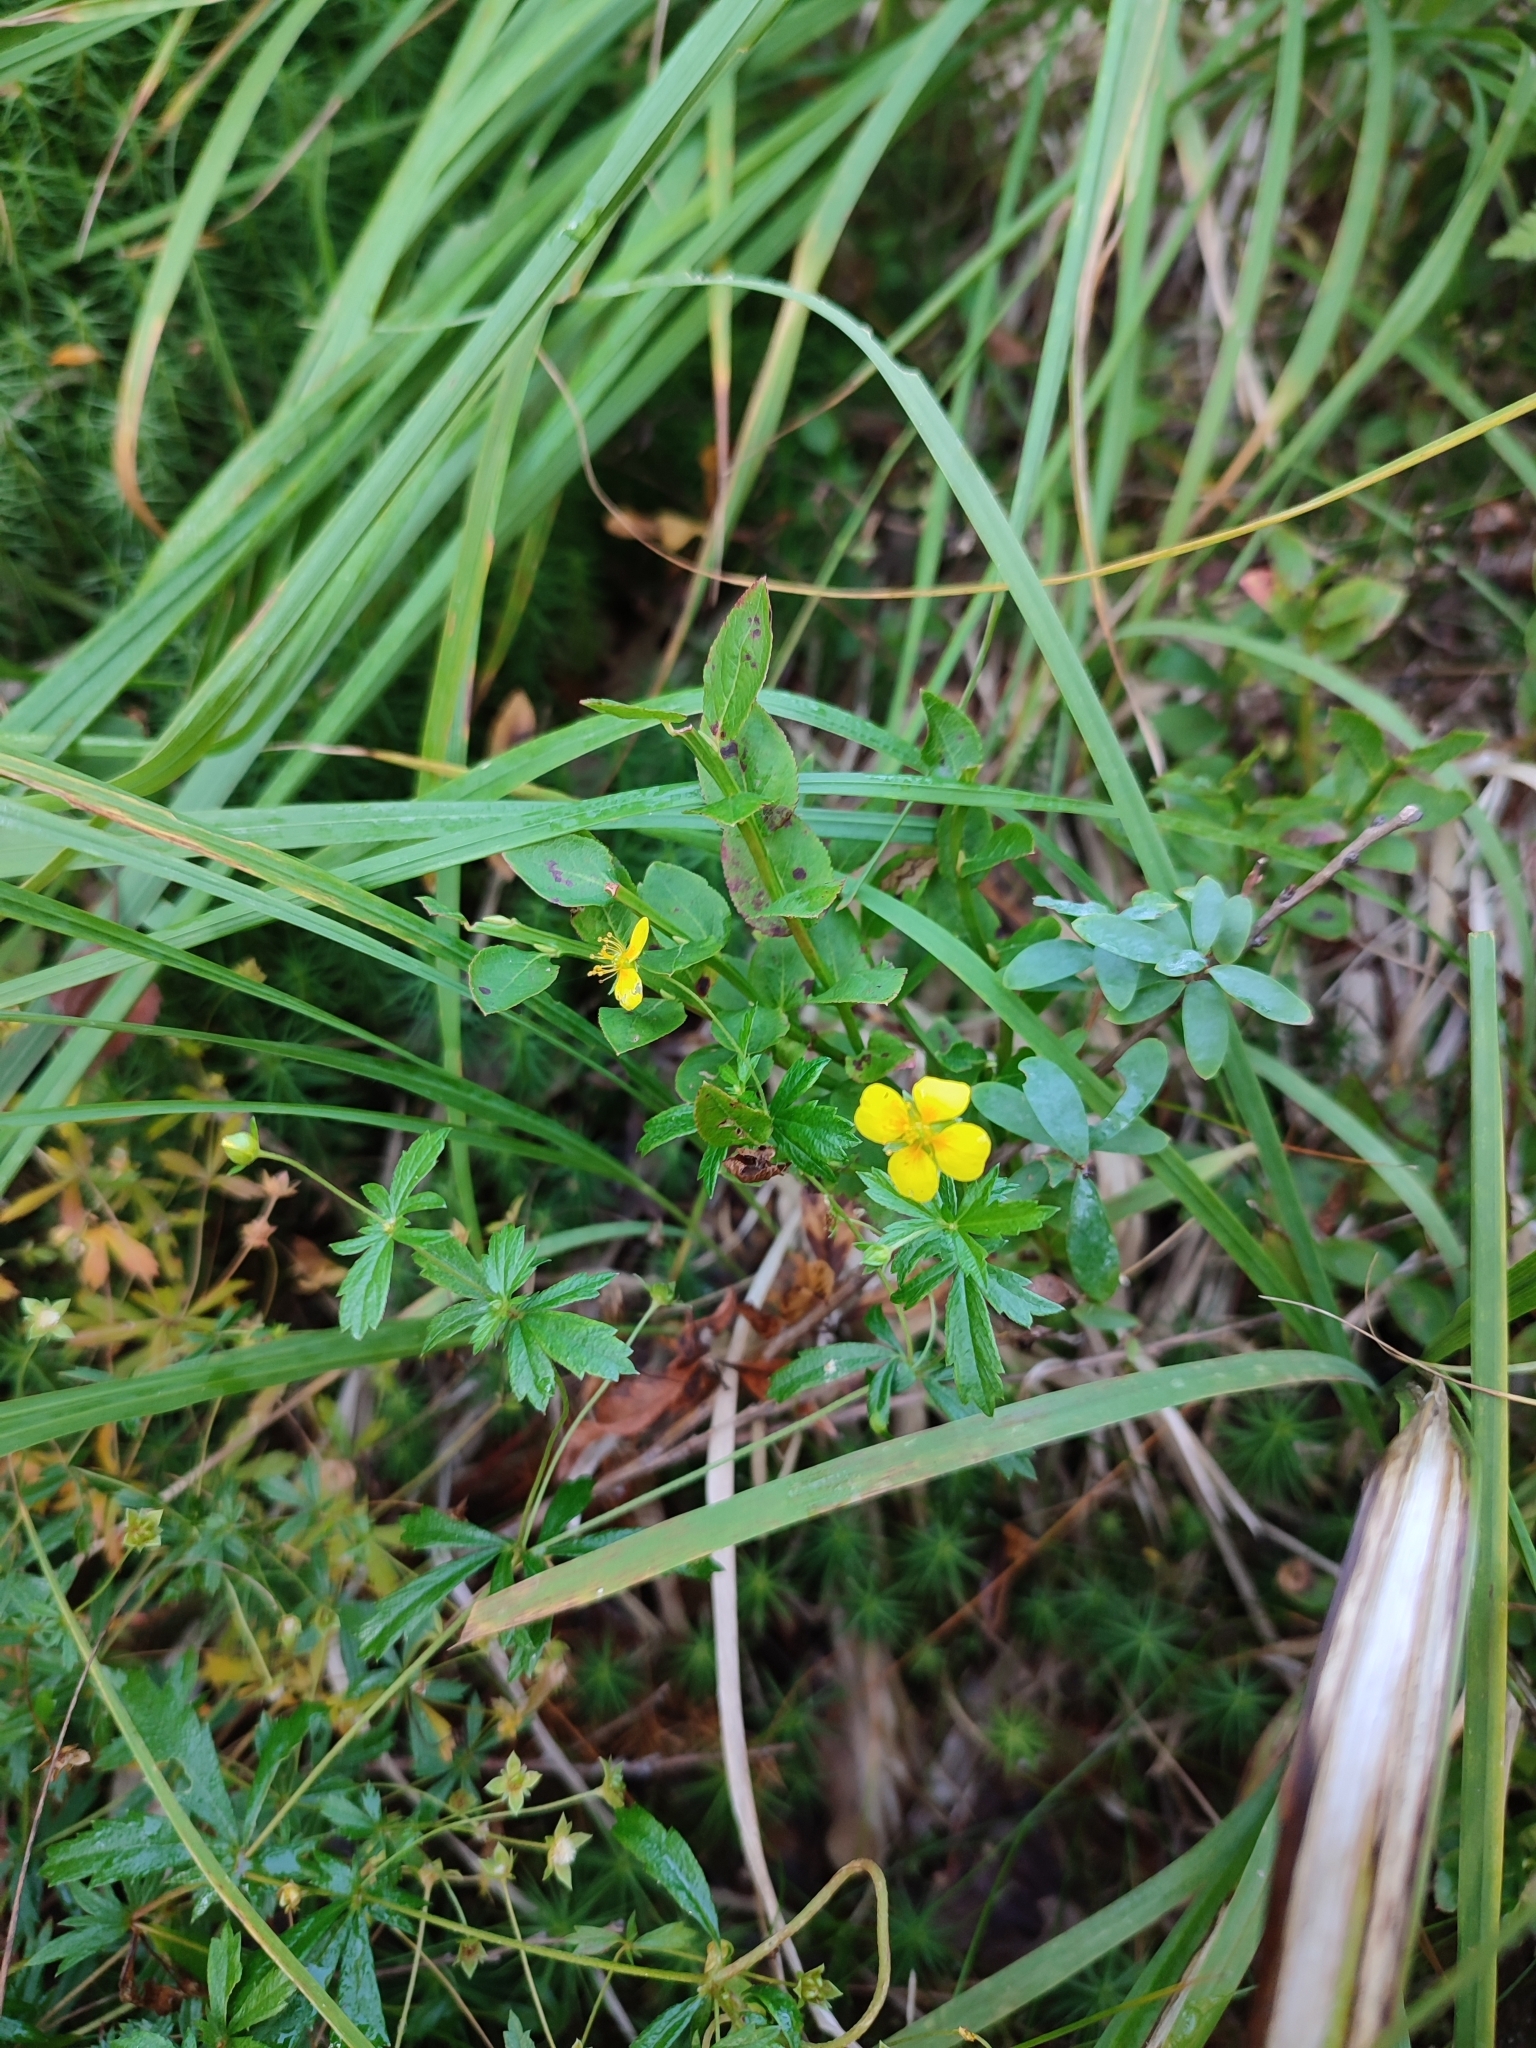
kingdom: Plantae
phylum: Tracheophyta
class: Magnoliopsida
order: Rosales
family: Rosaceae
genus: Potentilla
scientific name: Potentilla erecta
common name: Tormentil
